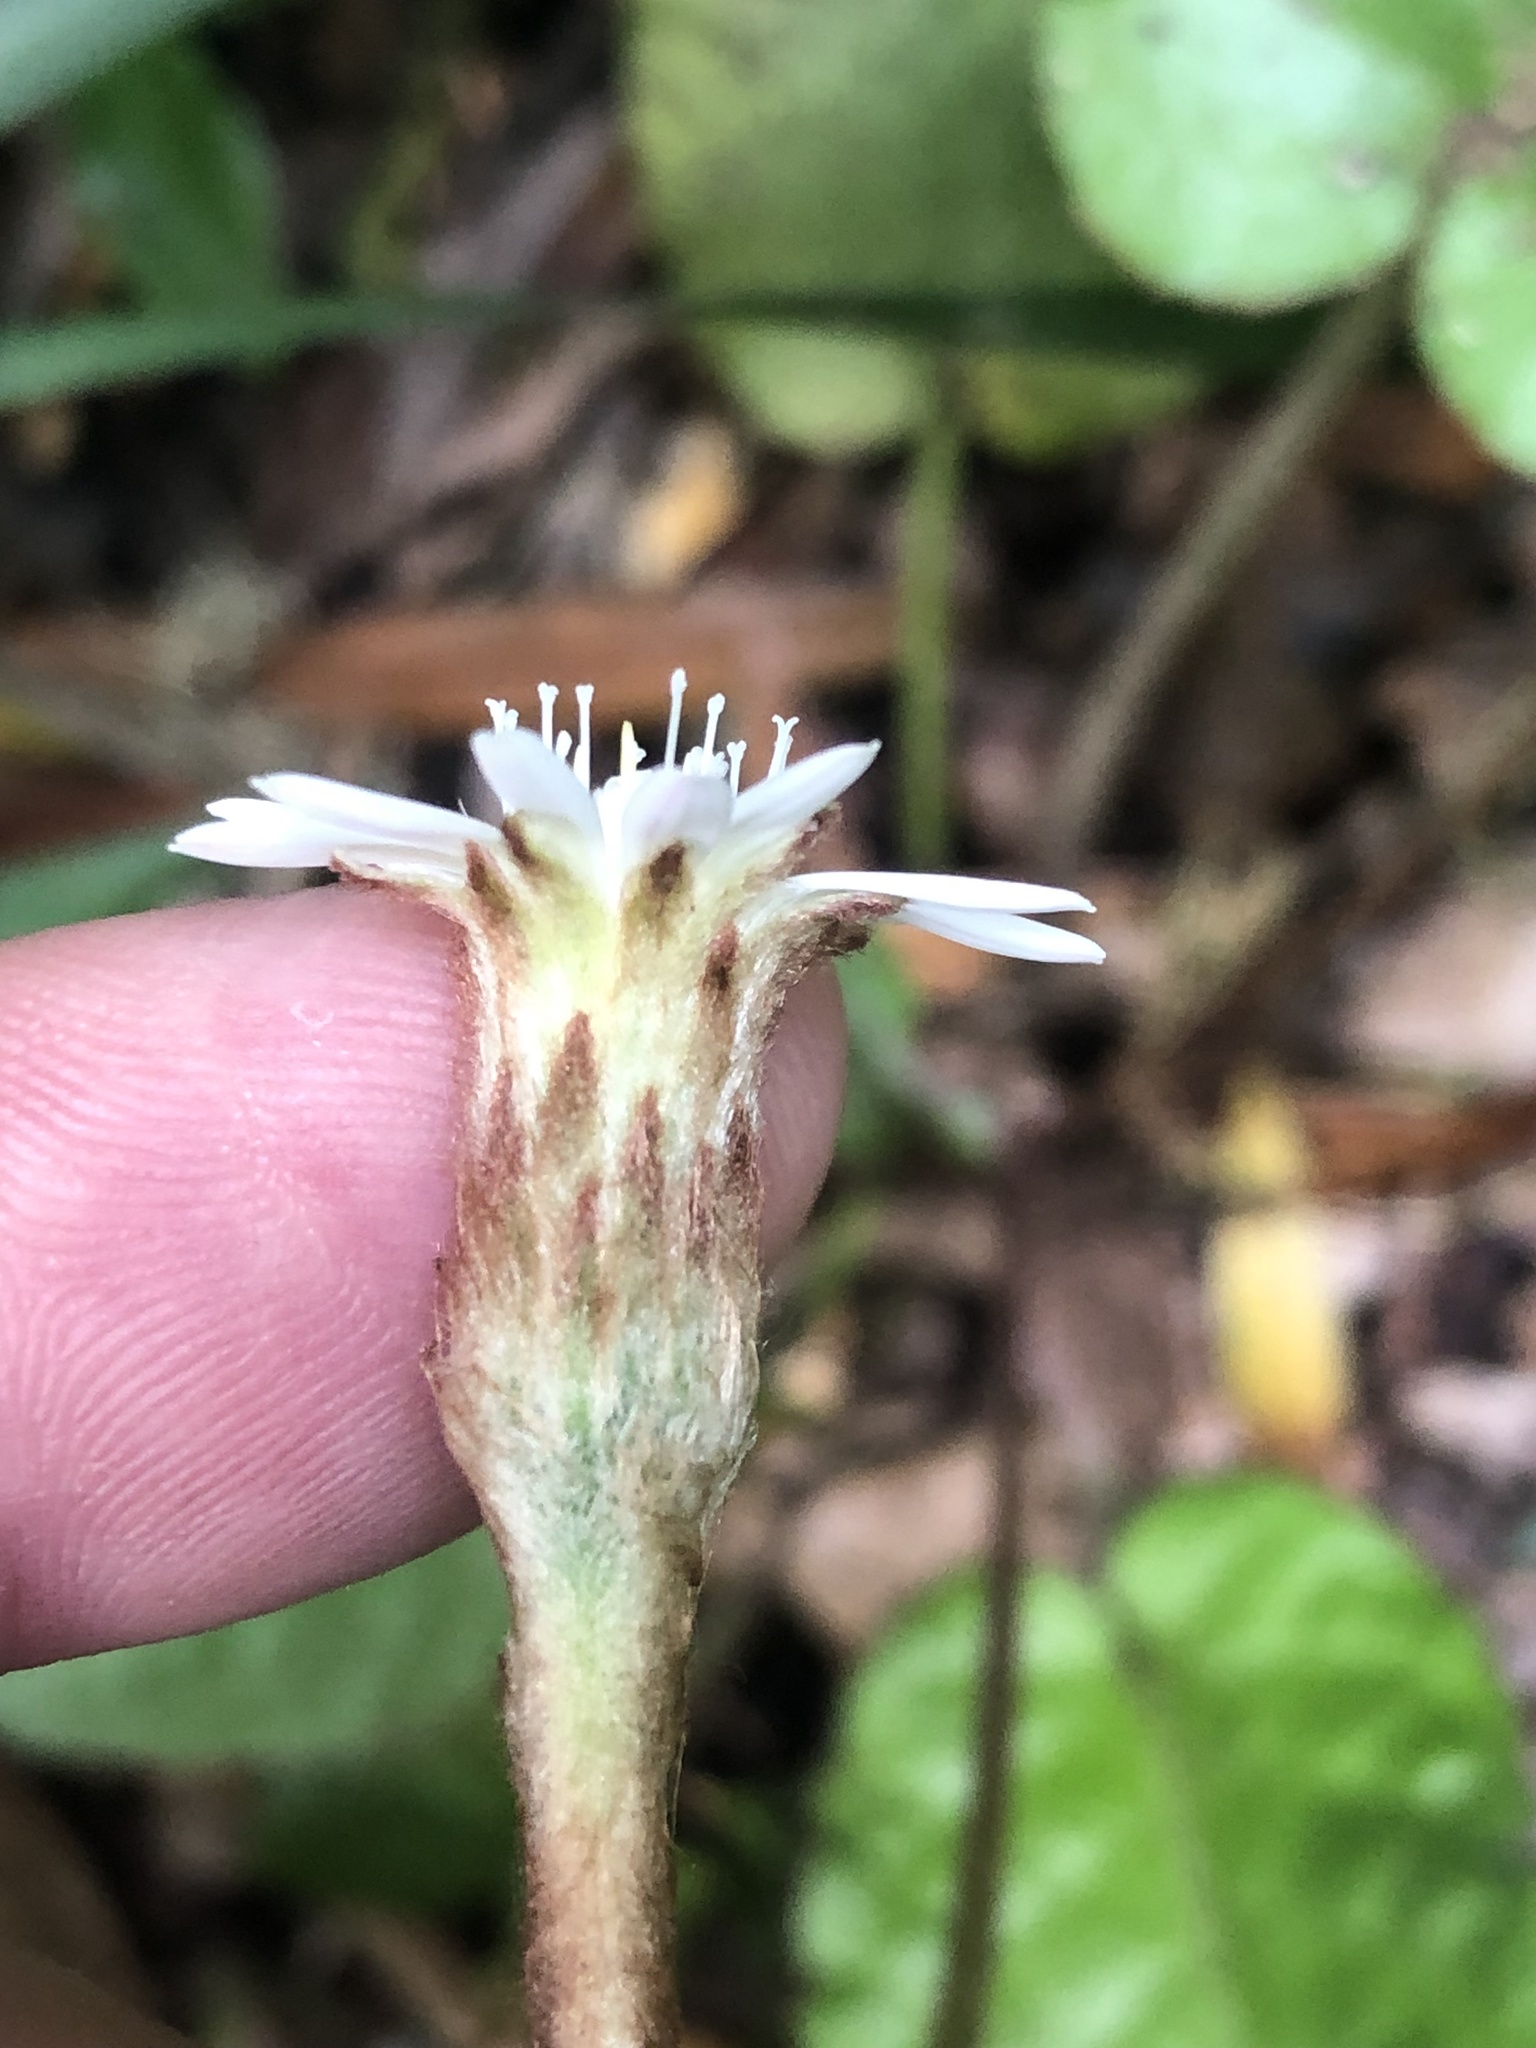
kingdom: Plantae
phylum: Tracheophyta
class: Magnoliopsida
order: Asterales
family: Asteraceae
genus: Piloselloides
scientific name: Piloselloides cordata
